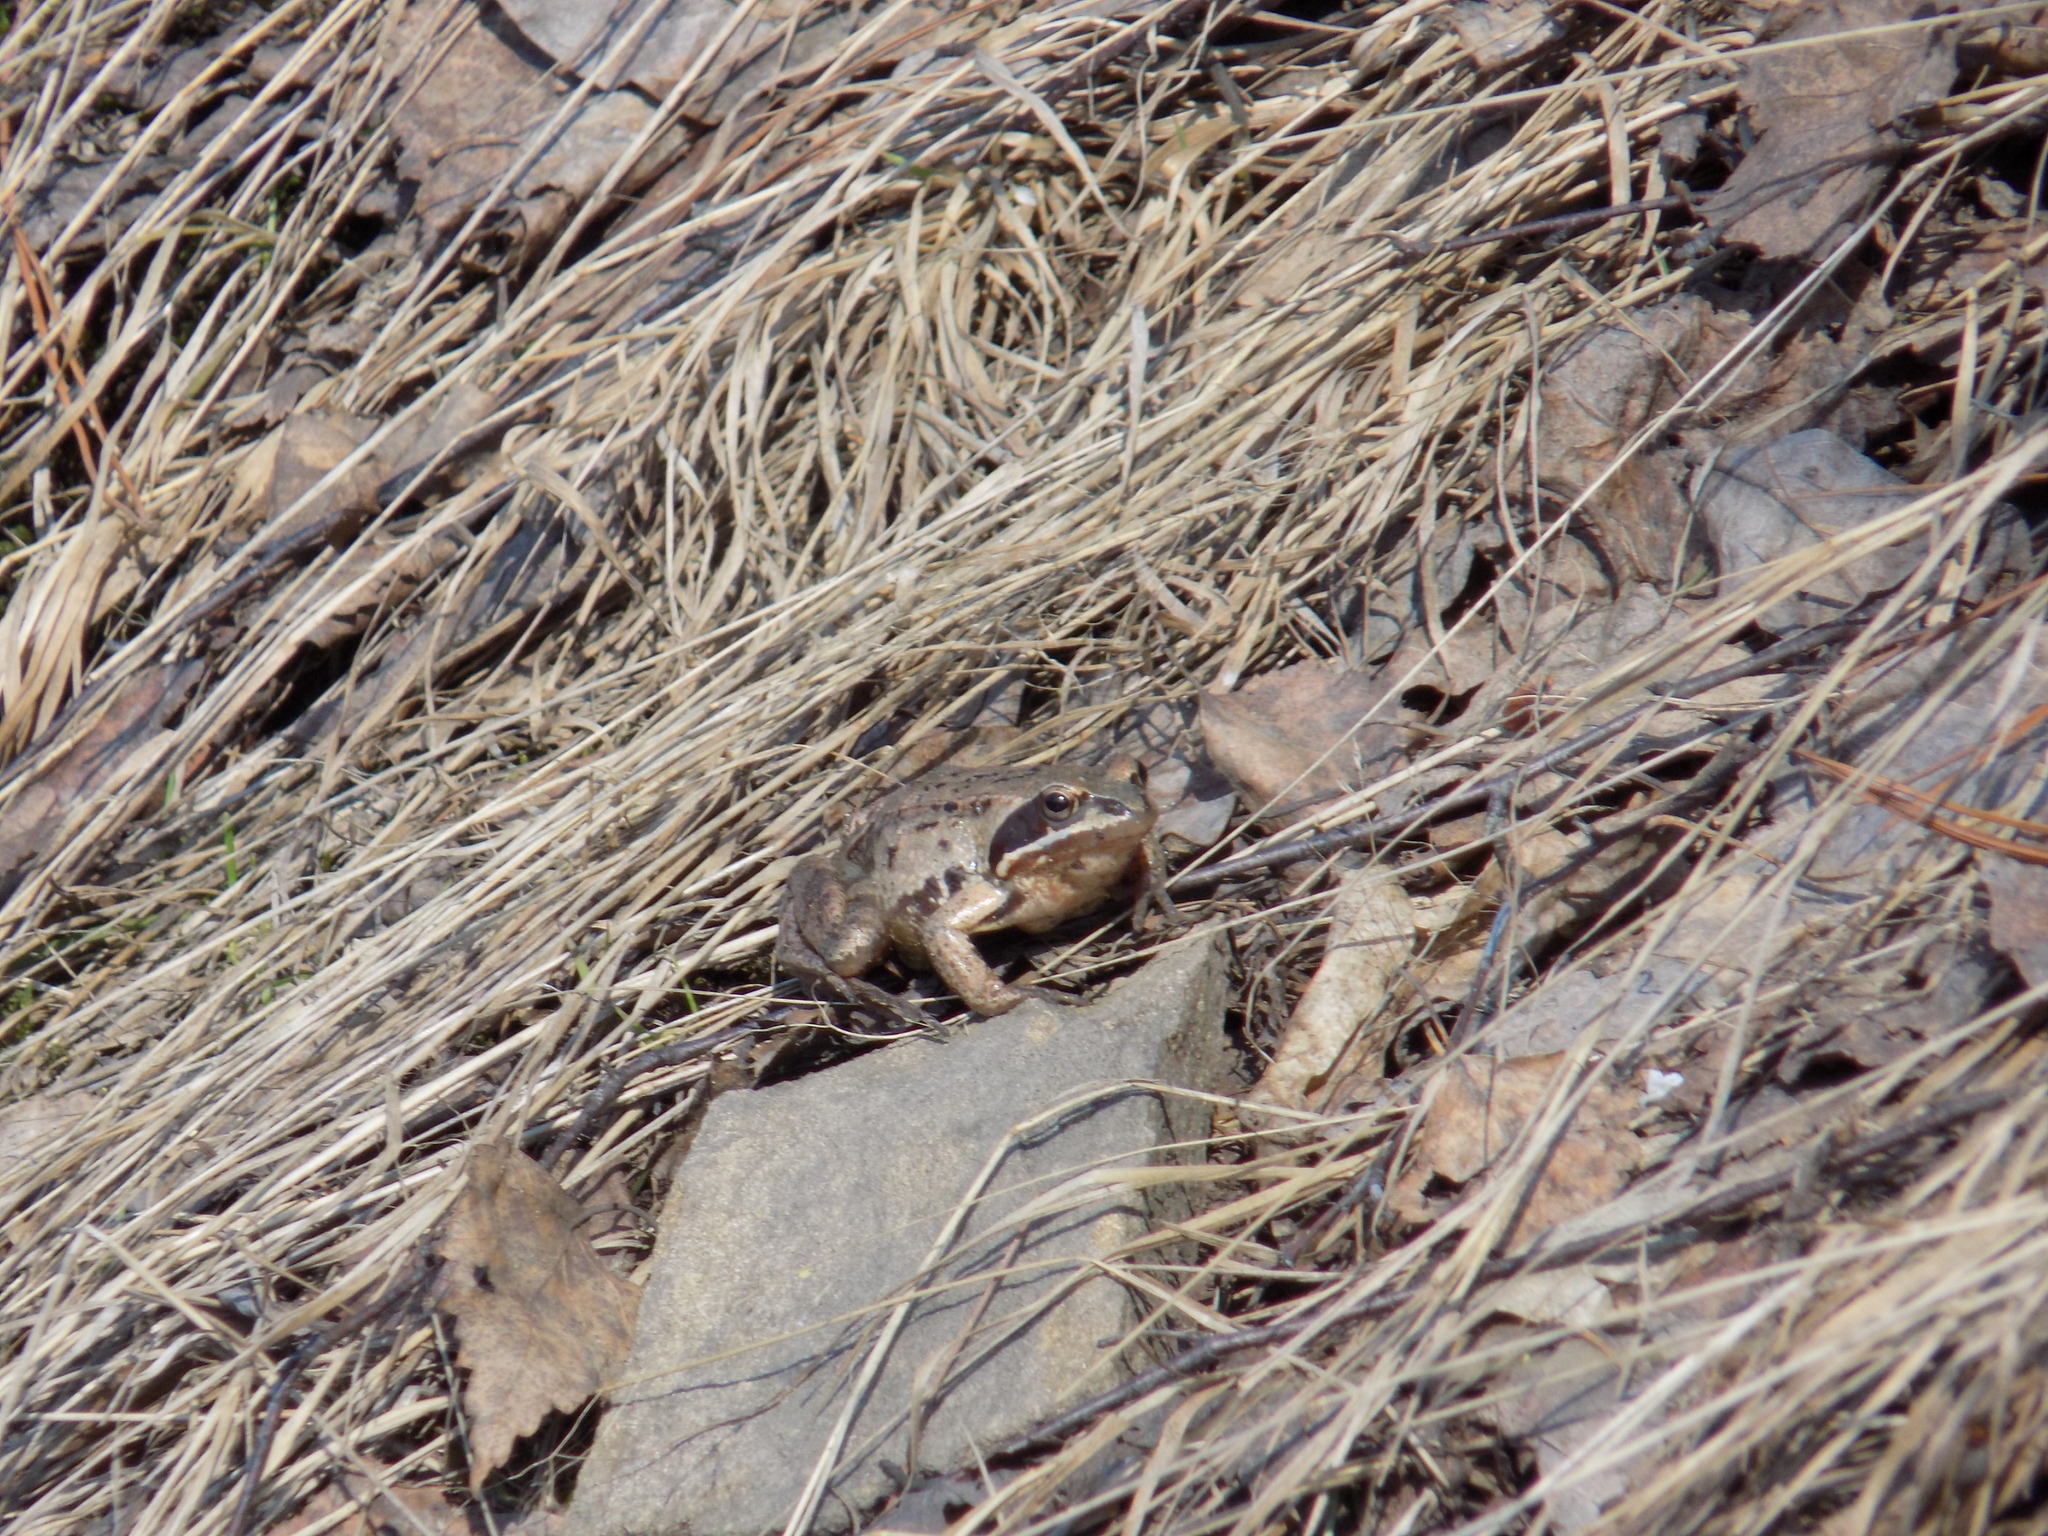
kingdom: Animalia
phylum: Chordata
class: Amphibia
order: Anura
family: Ranidae
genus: Rana
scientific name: Rana arvalis
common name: Moor frog
